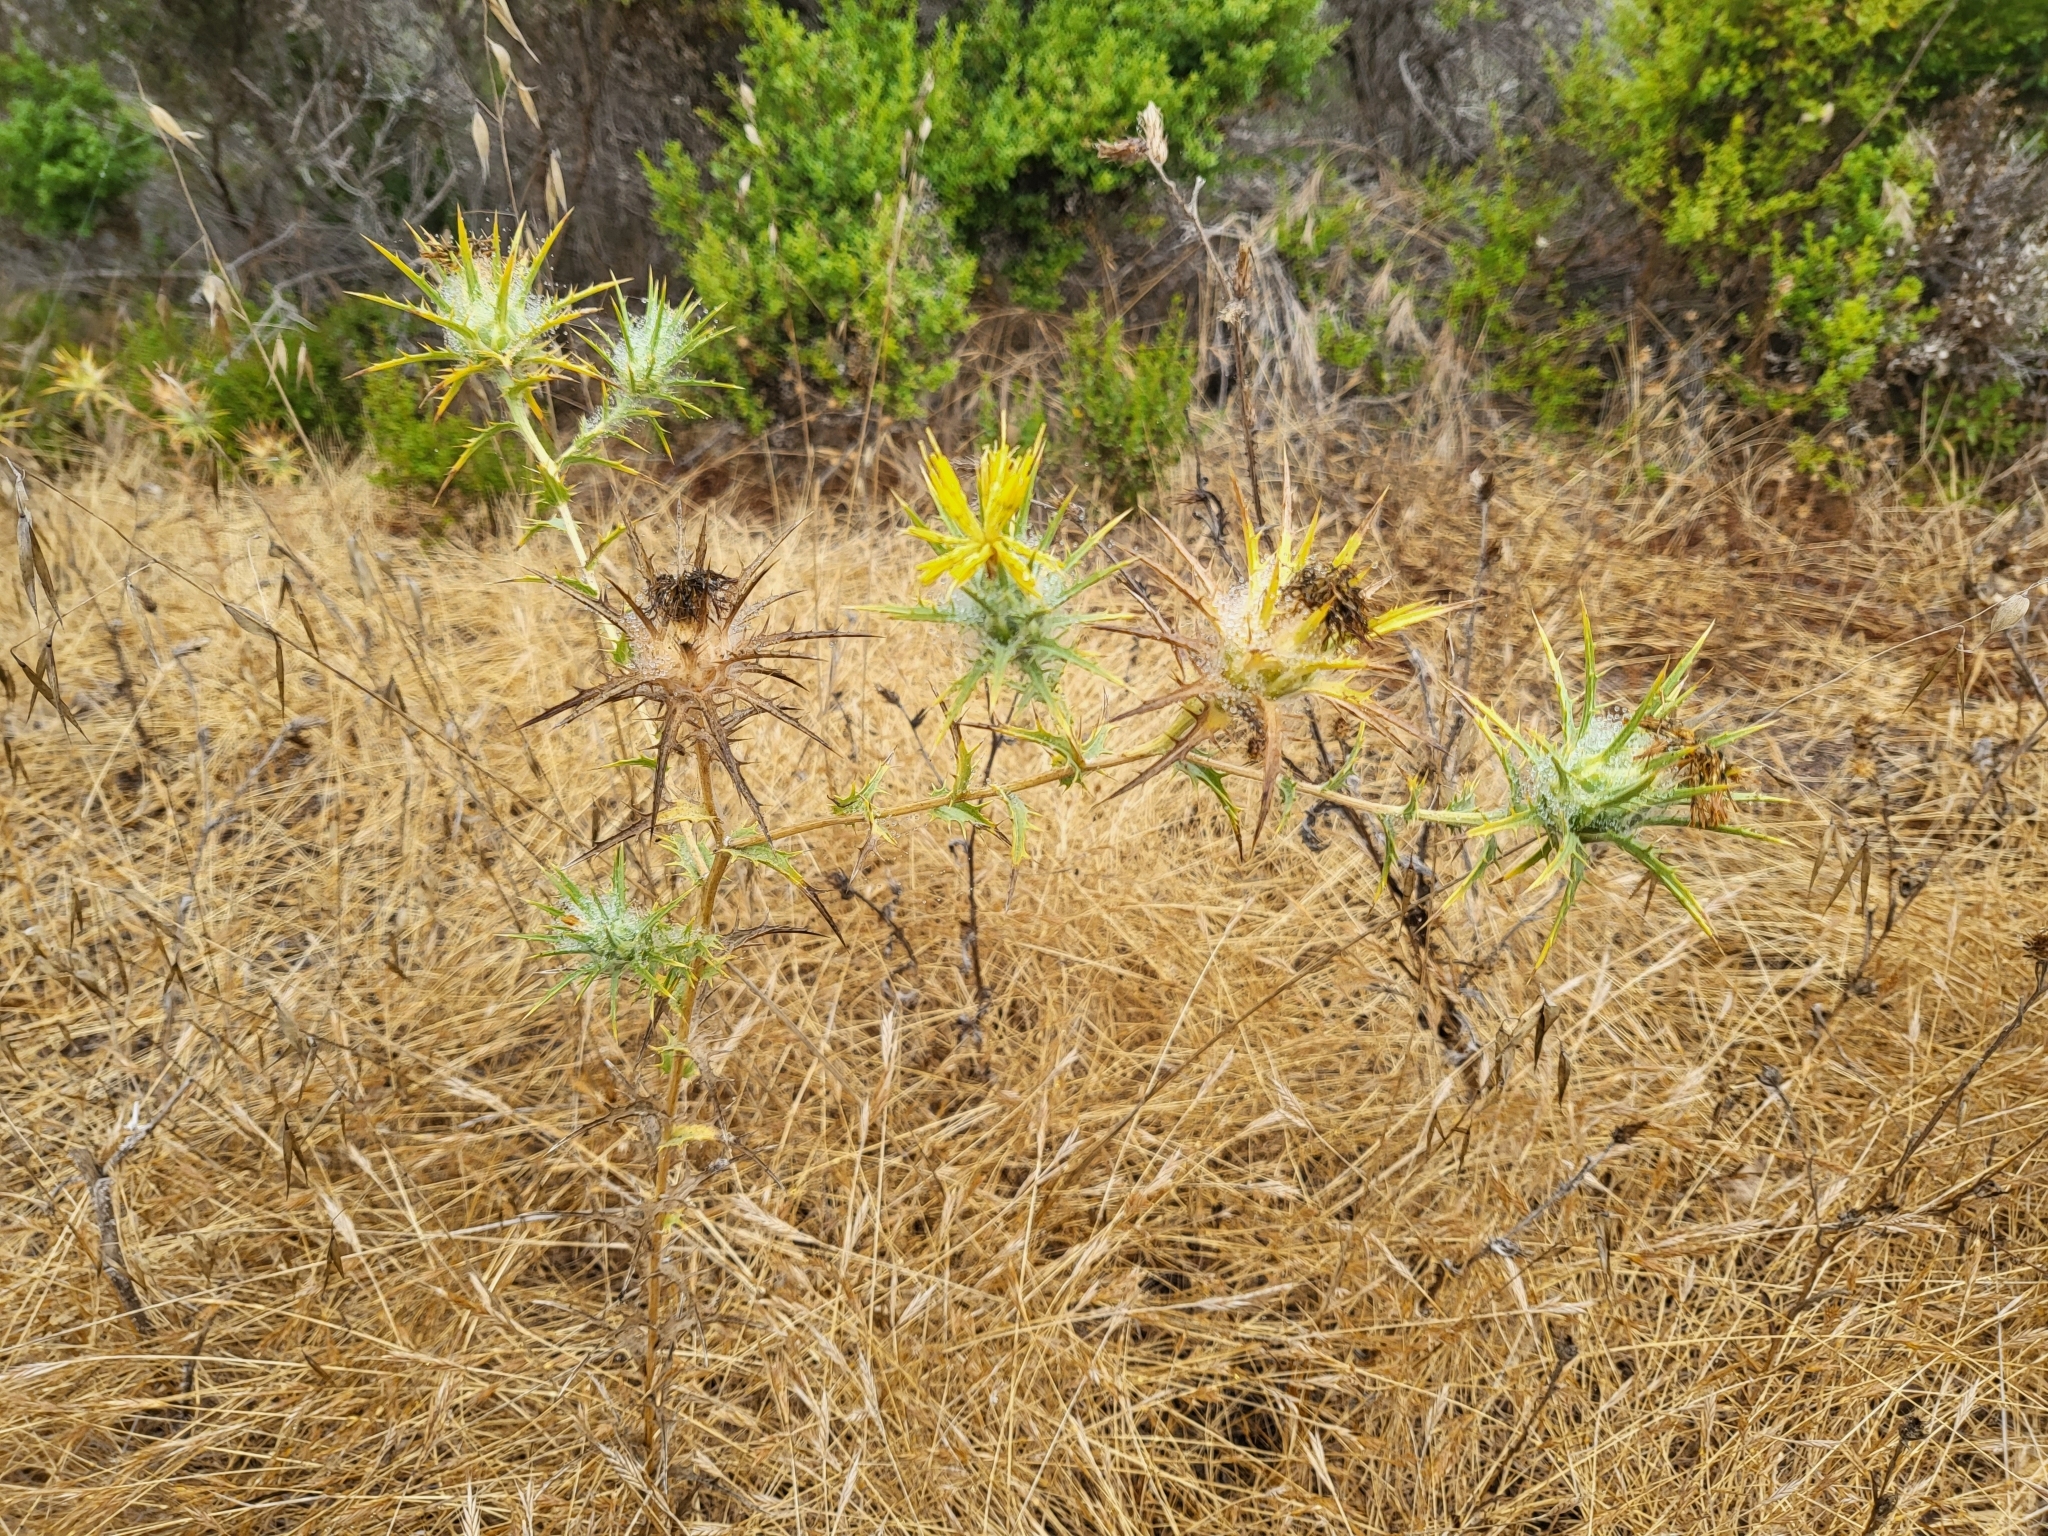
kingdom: Plantae
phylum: Tracheophyta
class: Magnoliopsida
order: Asterales
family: Asteraceae
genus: Carthamus
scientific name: Carthamus lanatus
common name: Downy safflower
